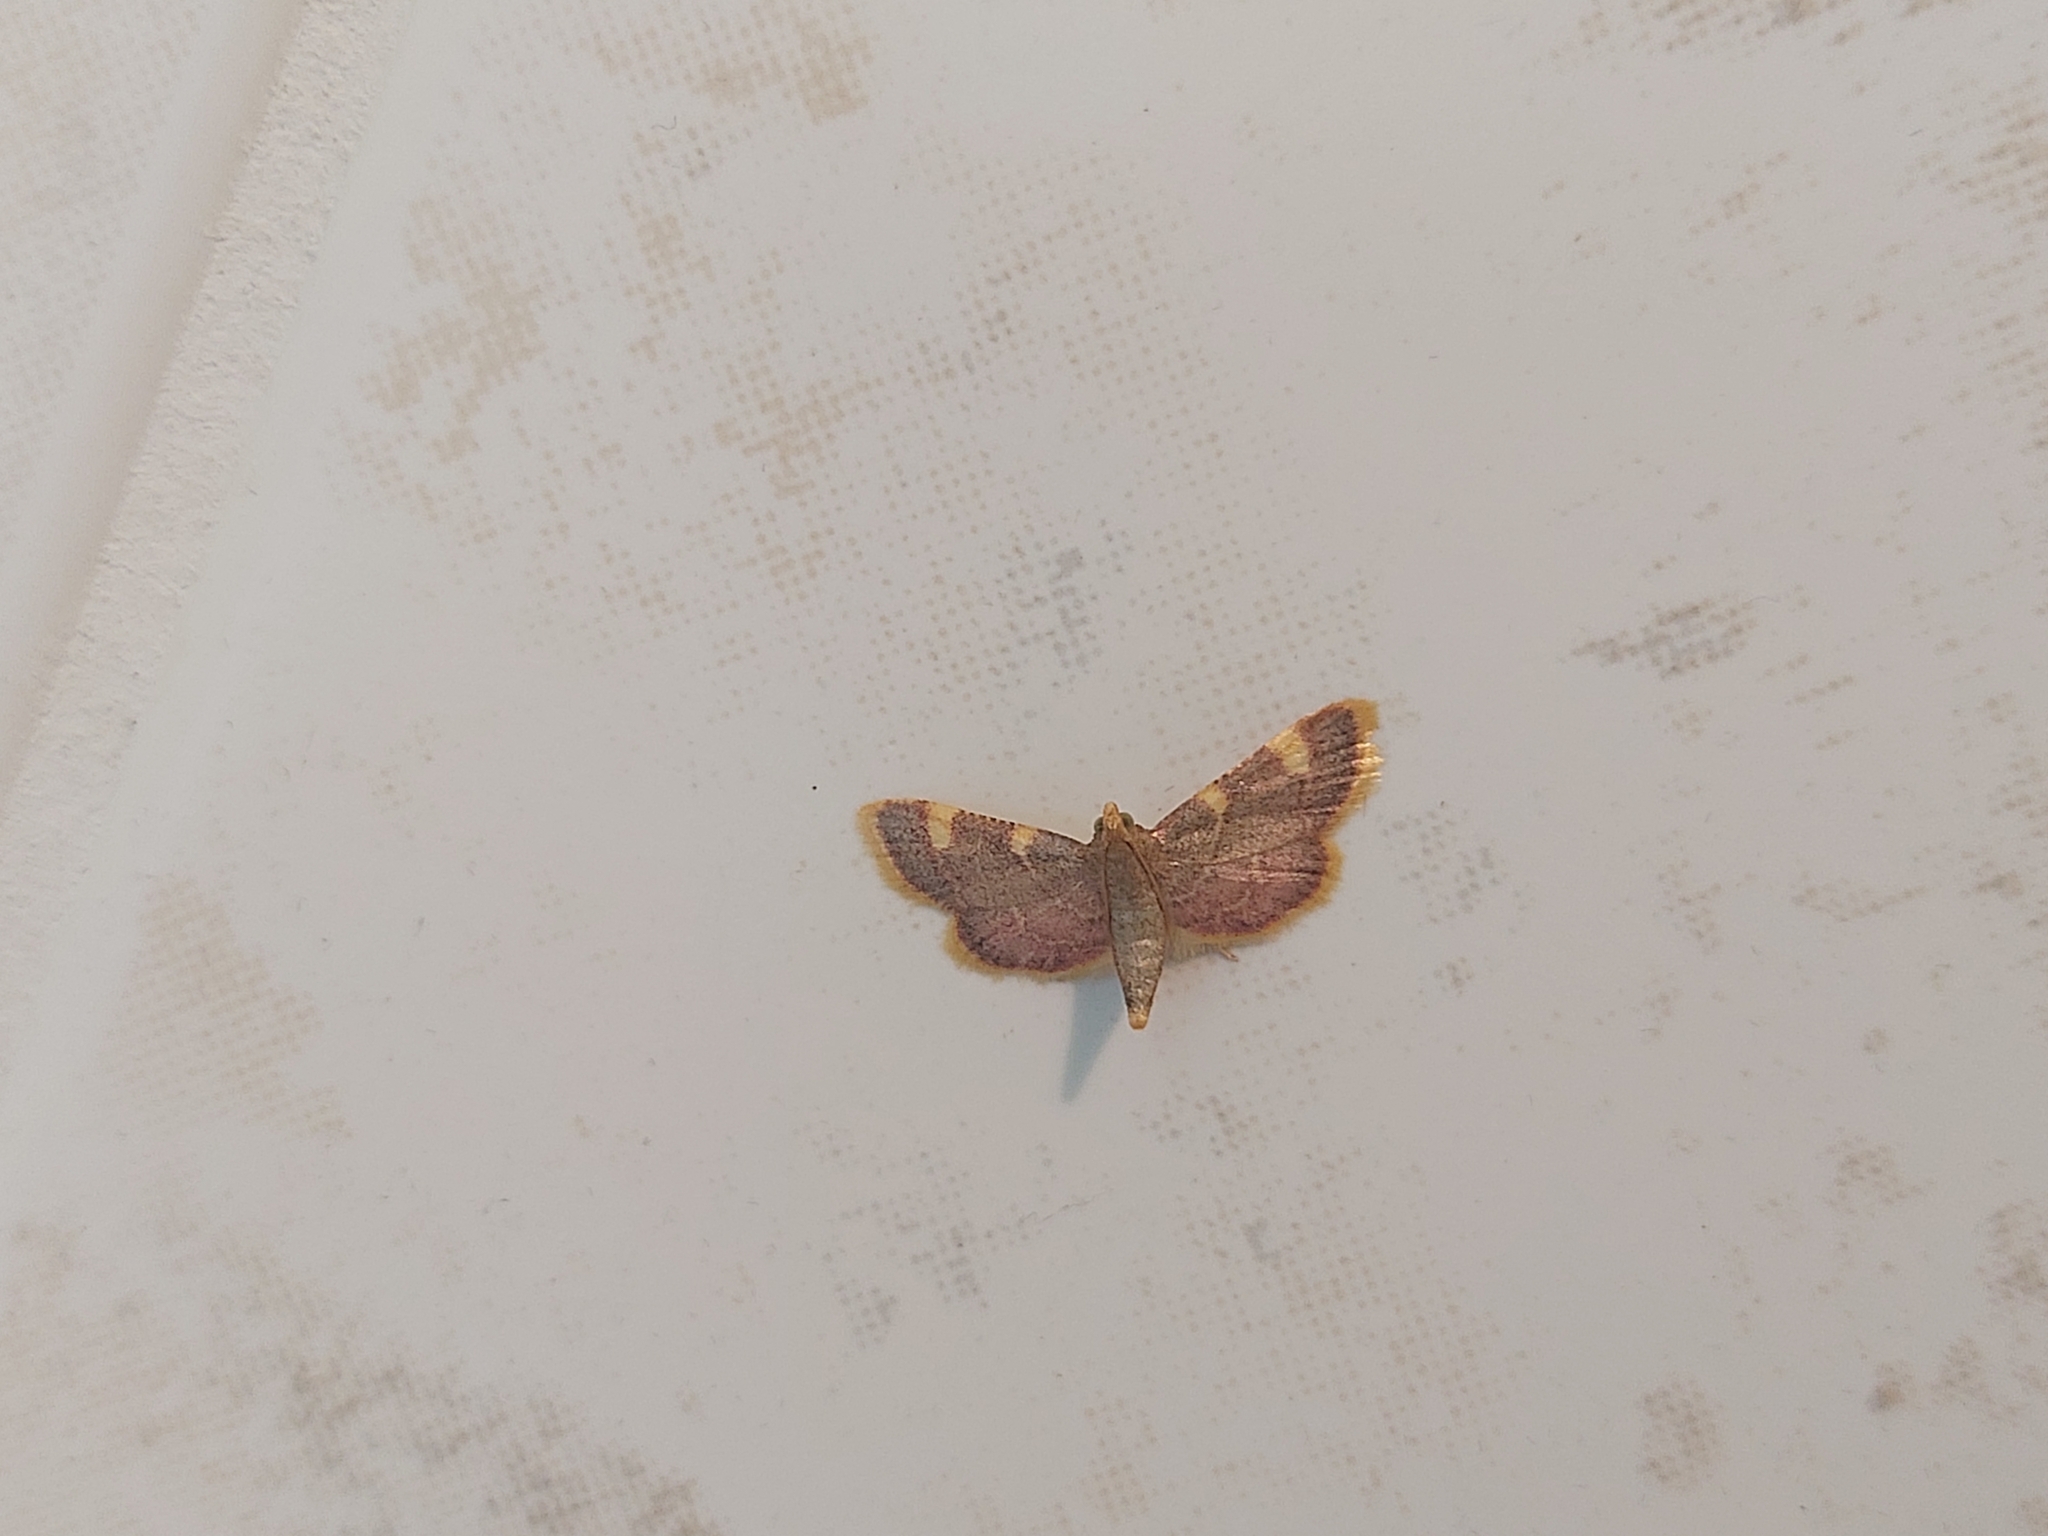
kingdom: Animalia
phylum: Arthropoda
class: Insecta
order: Lepidoptera
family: Pyralidae
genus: Hypsopygia
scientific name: Hypsopygia costalis
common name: Gold triangle
